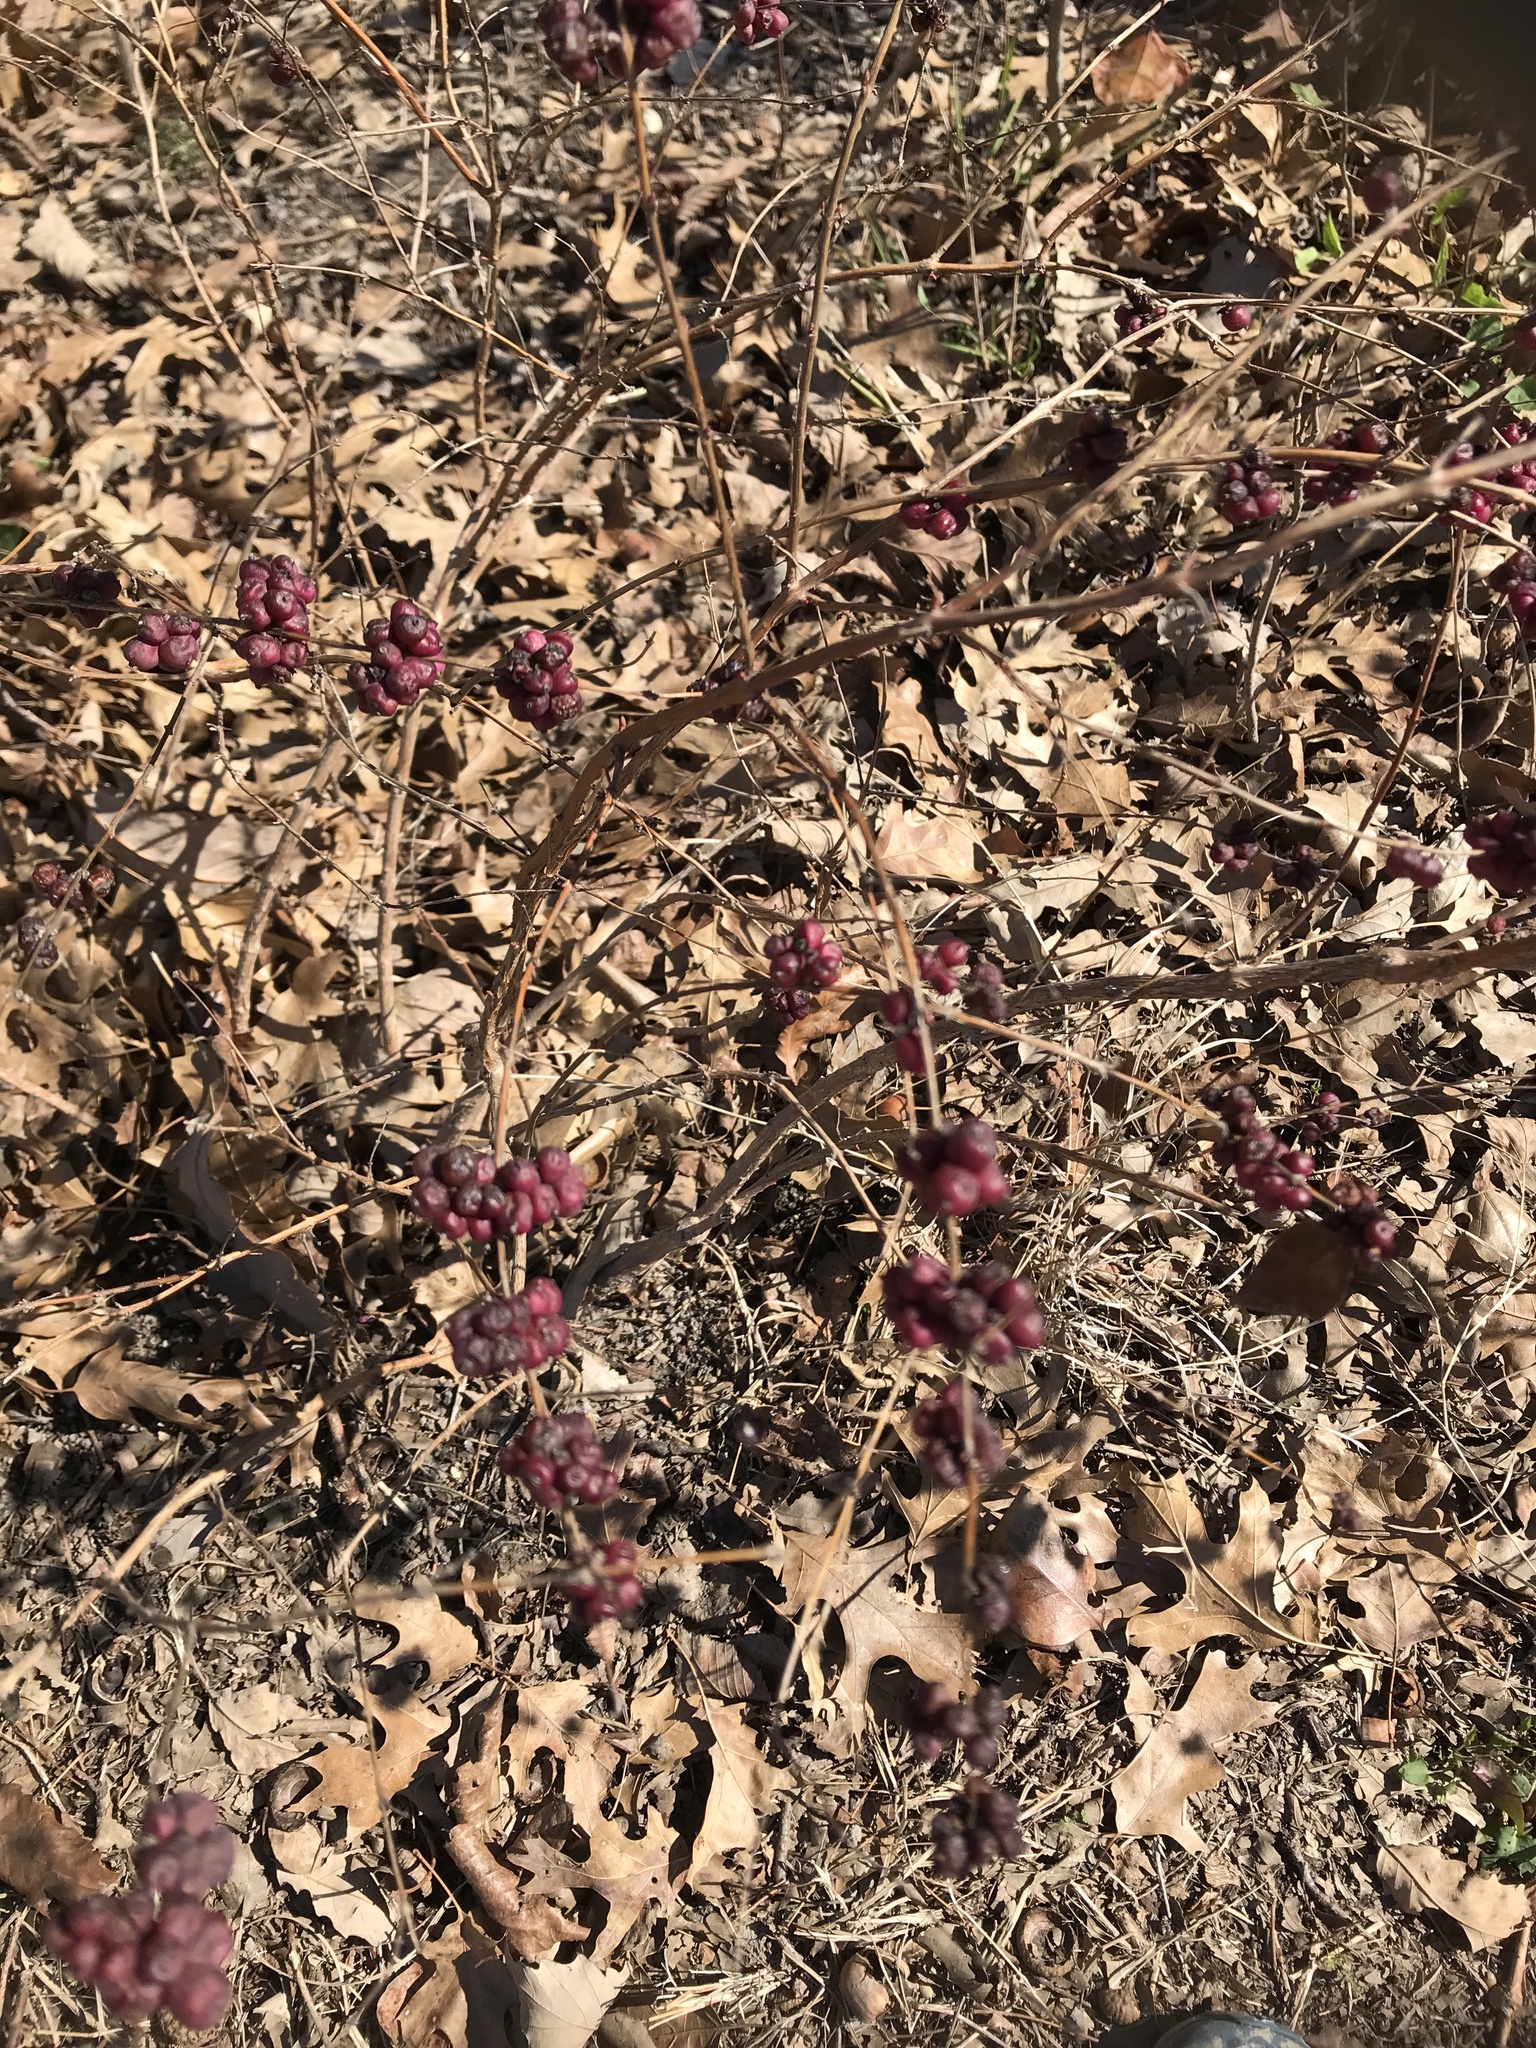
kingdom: Plantae
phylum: Tracheophyta
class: Magnoliopsida
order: Dipsacales
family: Caprifoliaceae
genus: Symphoricarpos
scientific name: Symphoricarpos orbiculatus
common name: Coralberry
